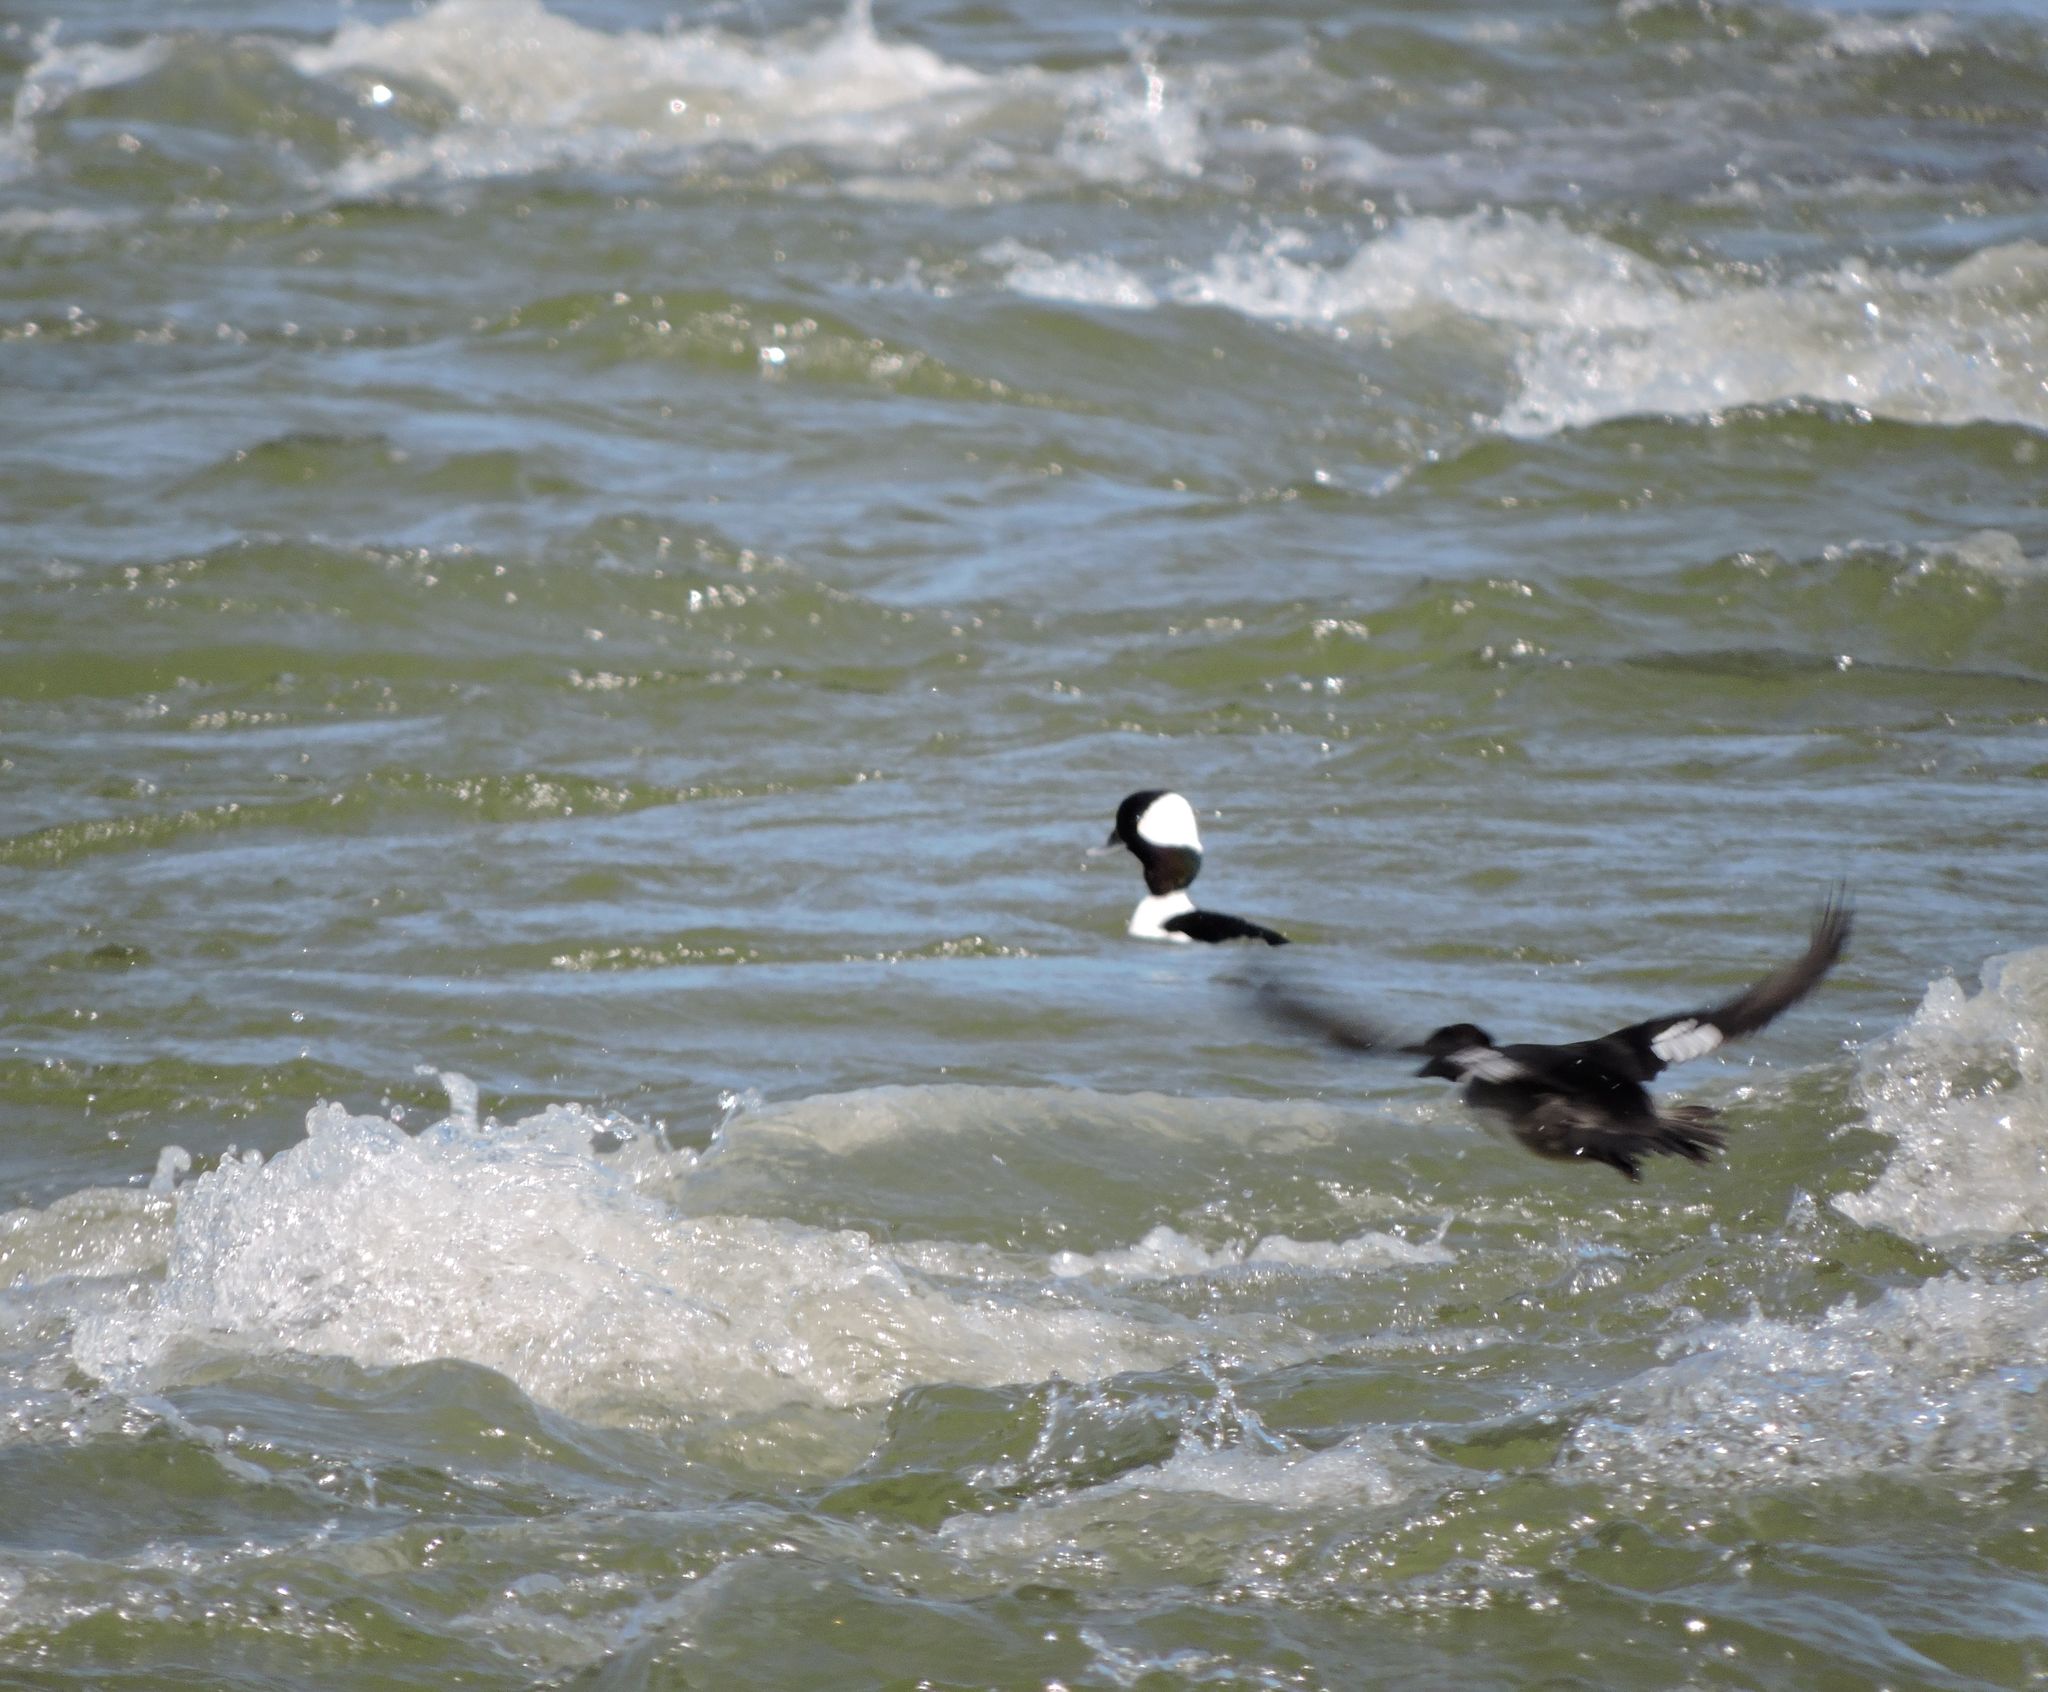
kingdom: Animalia
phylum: Chordata
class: Aves
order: Anseriformes
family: Anatidae
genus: Bucephala
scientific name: Bucephala albeola
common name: Bufflehead
